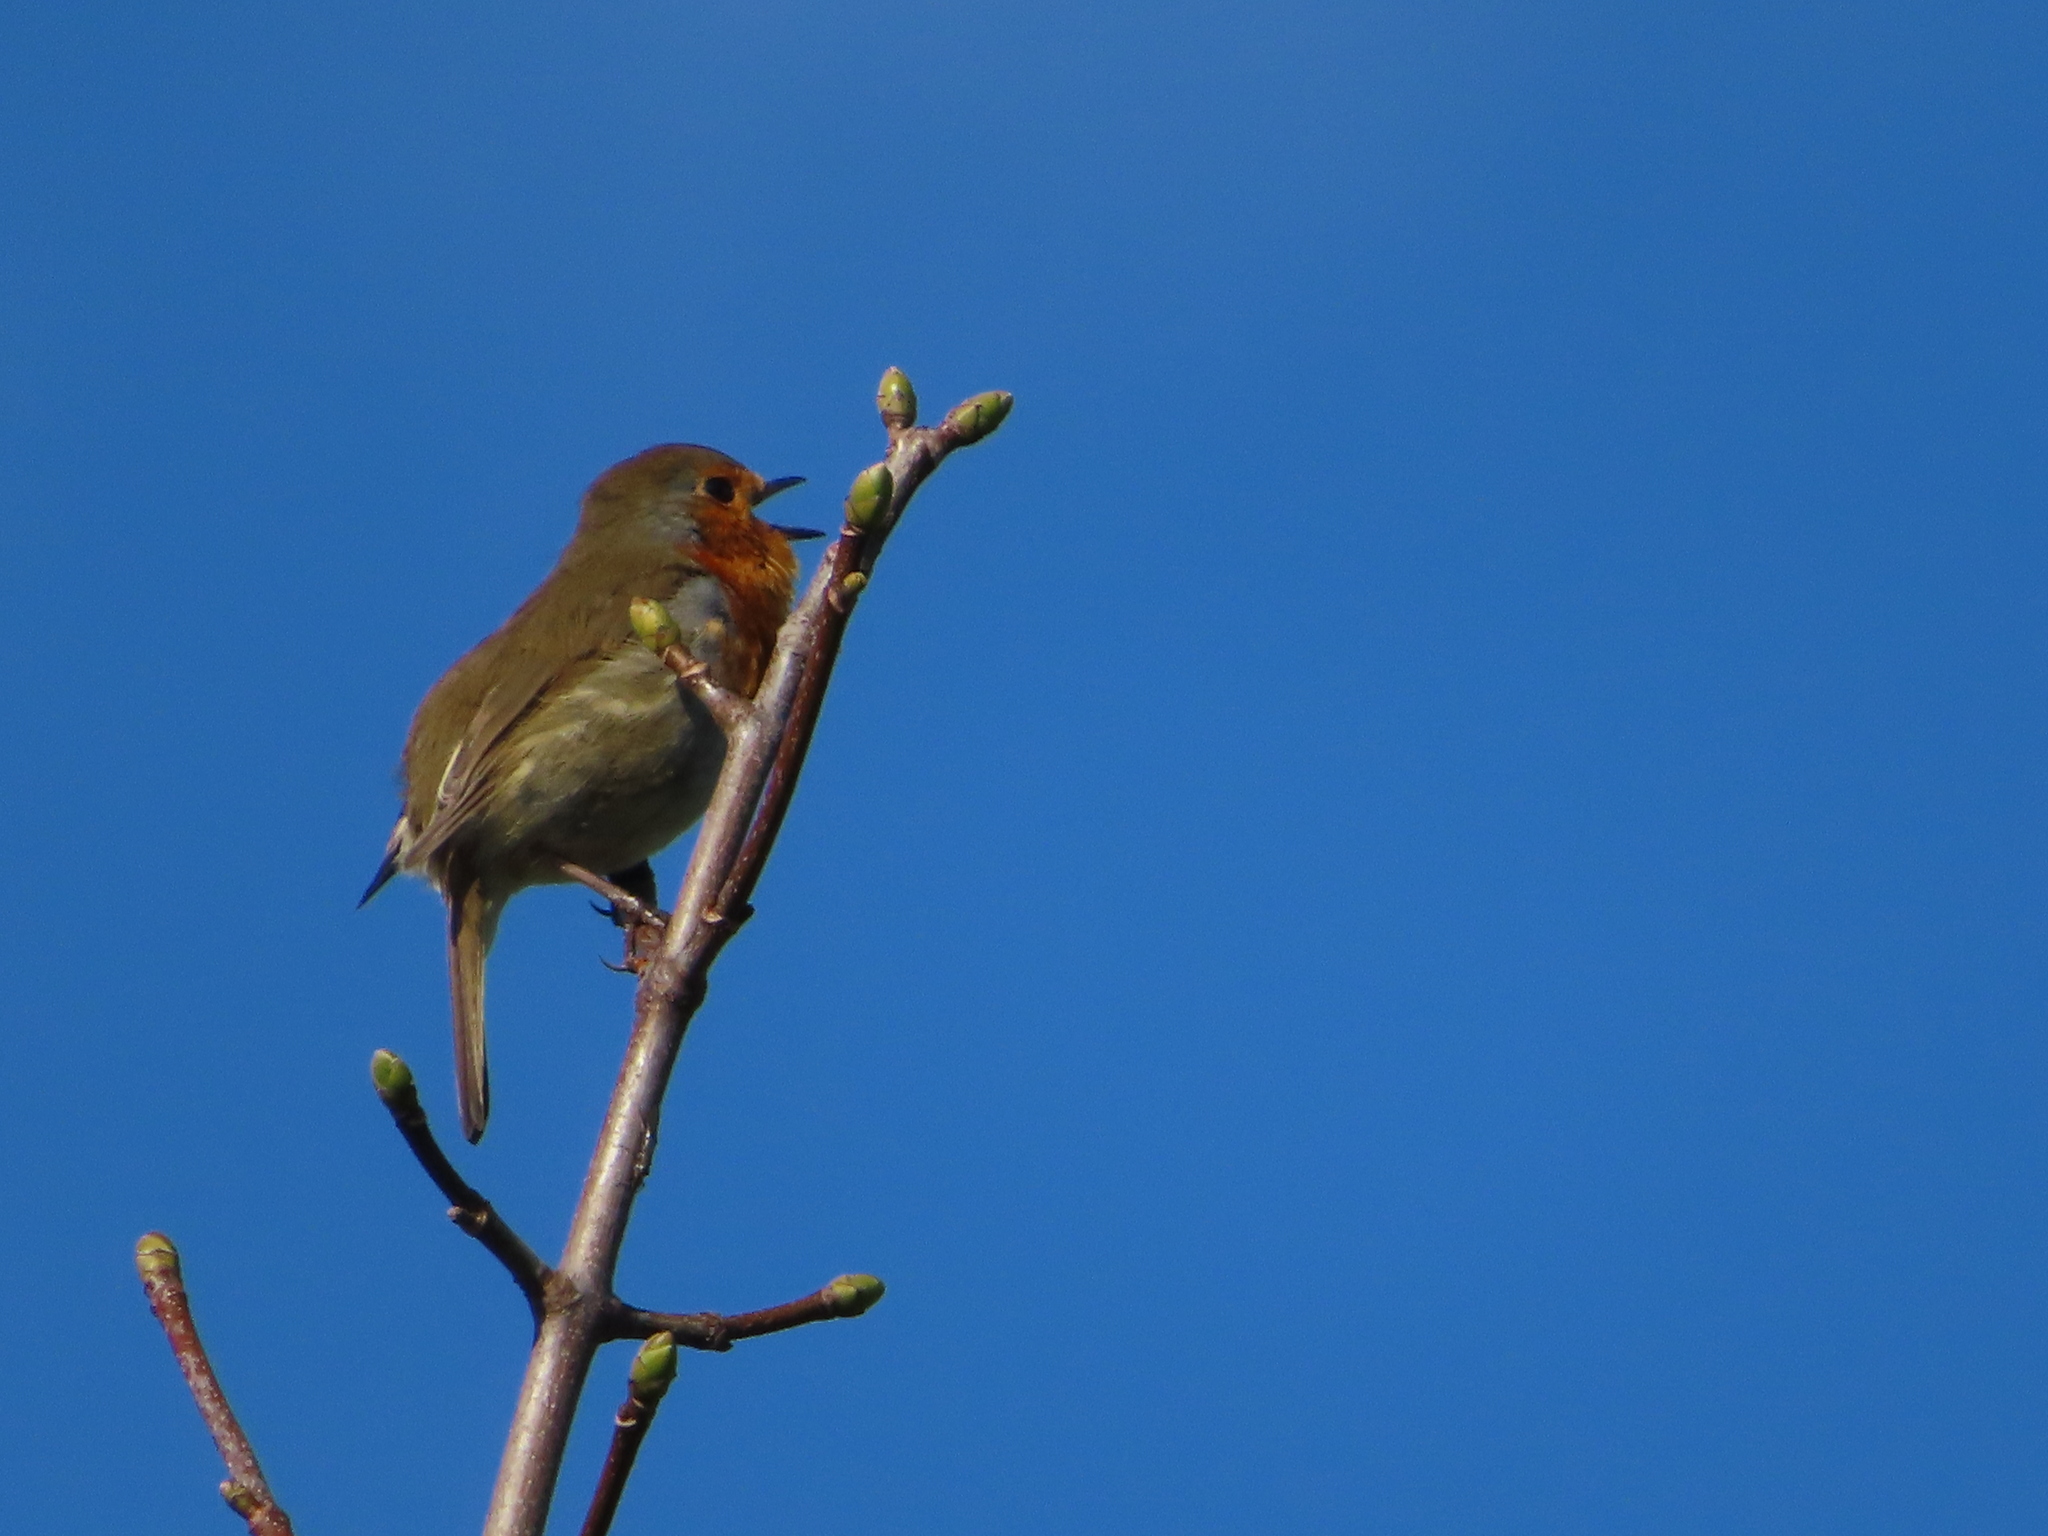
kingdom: Animalia
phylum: Chordata
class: Aves
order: Passeriformes
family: Muscicapidae
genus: Erithacus
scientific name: Erithacus rubecula
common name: European robin
